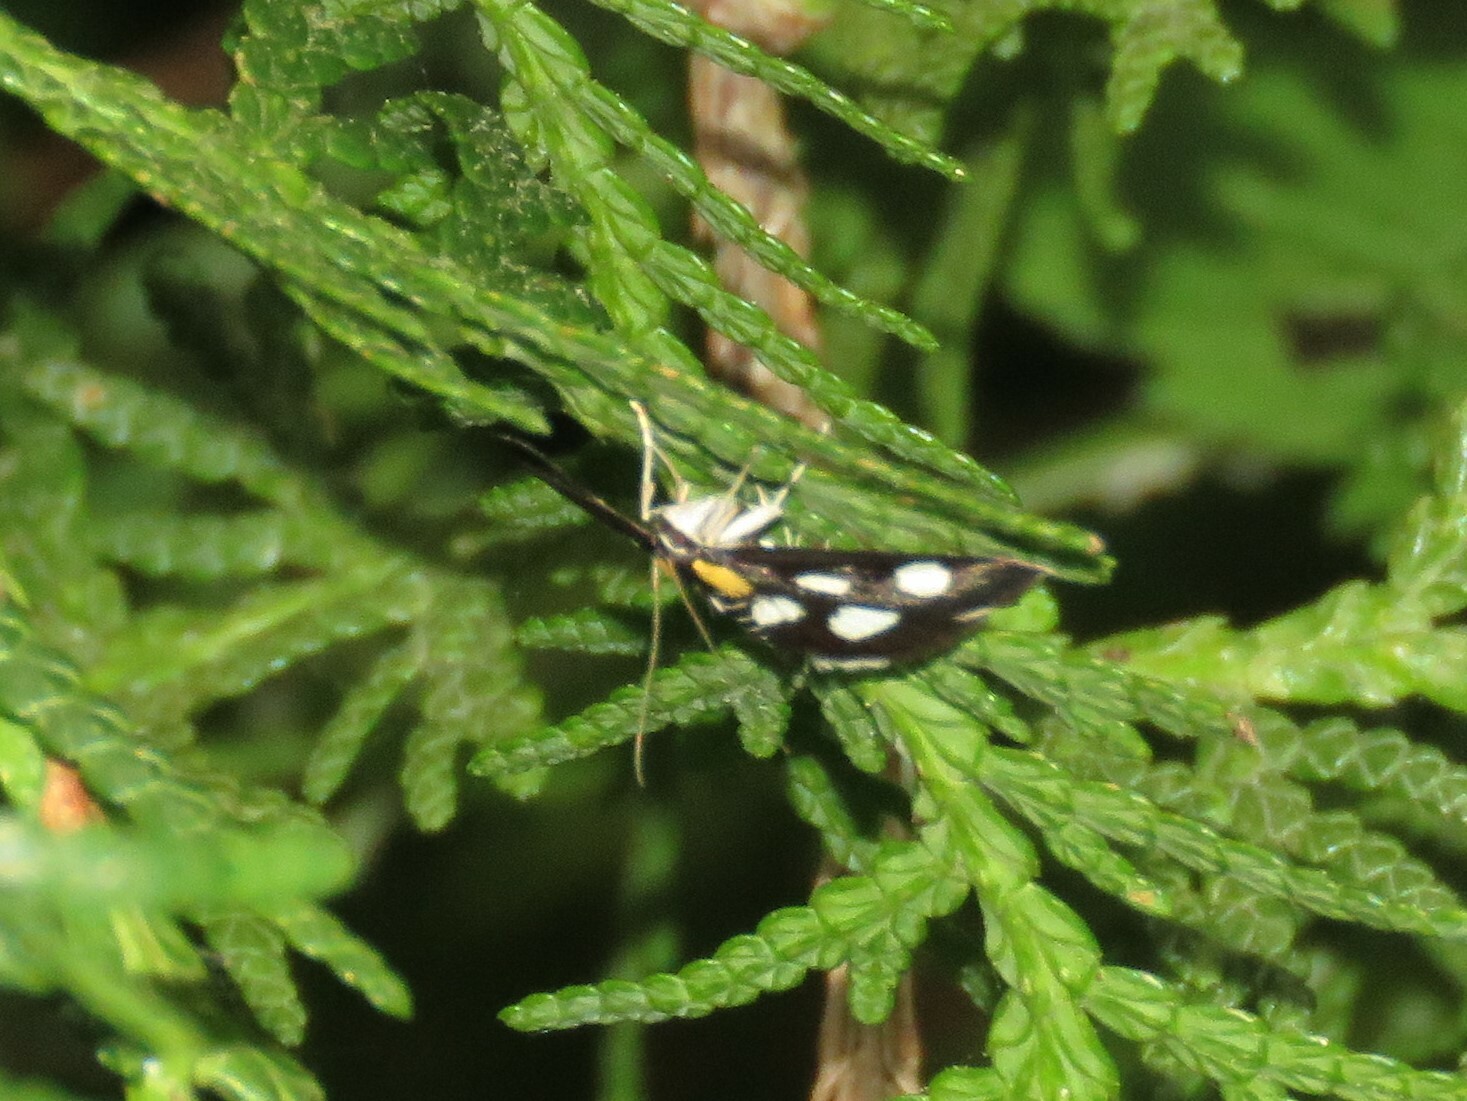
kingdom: Animalia
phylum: Arthropoda
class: Insecta
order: Lepidoptera
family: Crambidae
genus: Anania
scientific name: Anania funebris
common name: White-spotted sable moth
